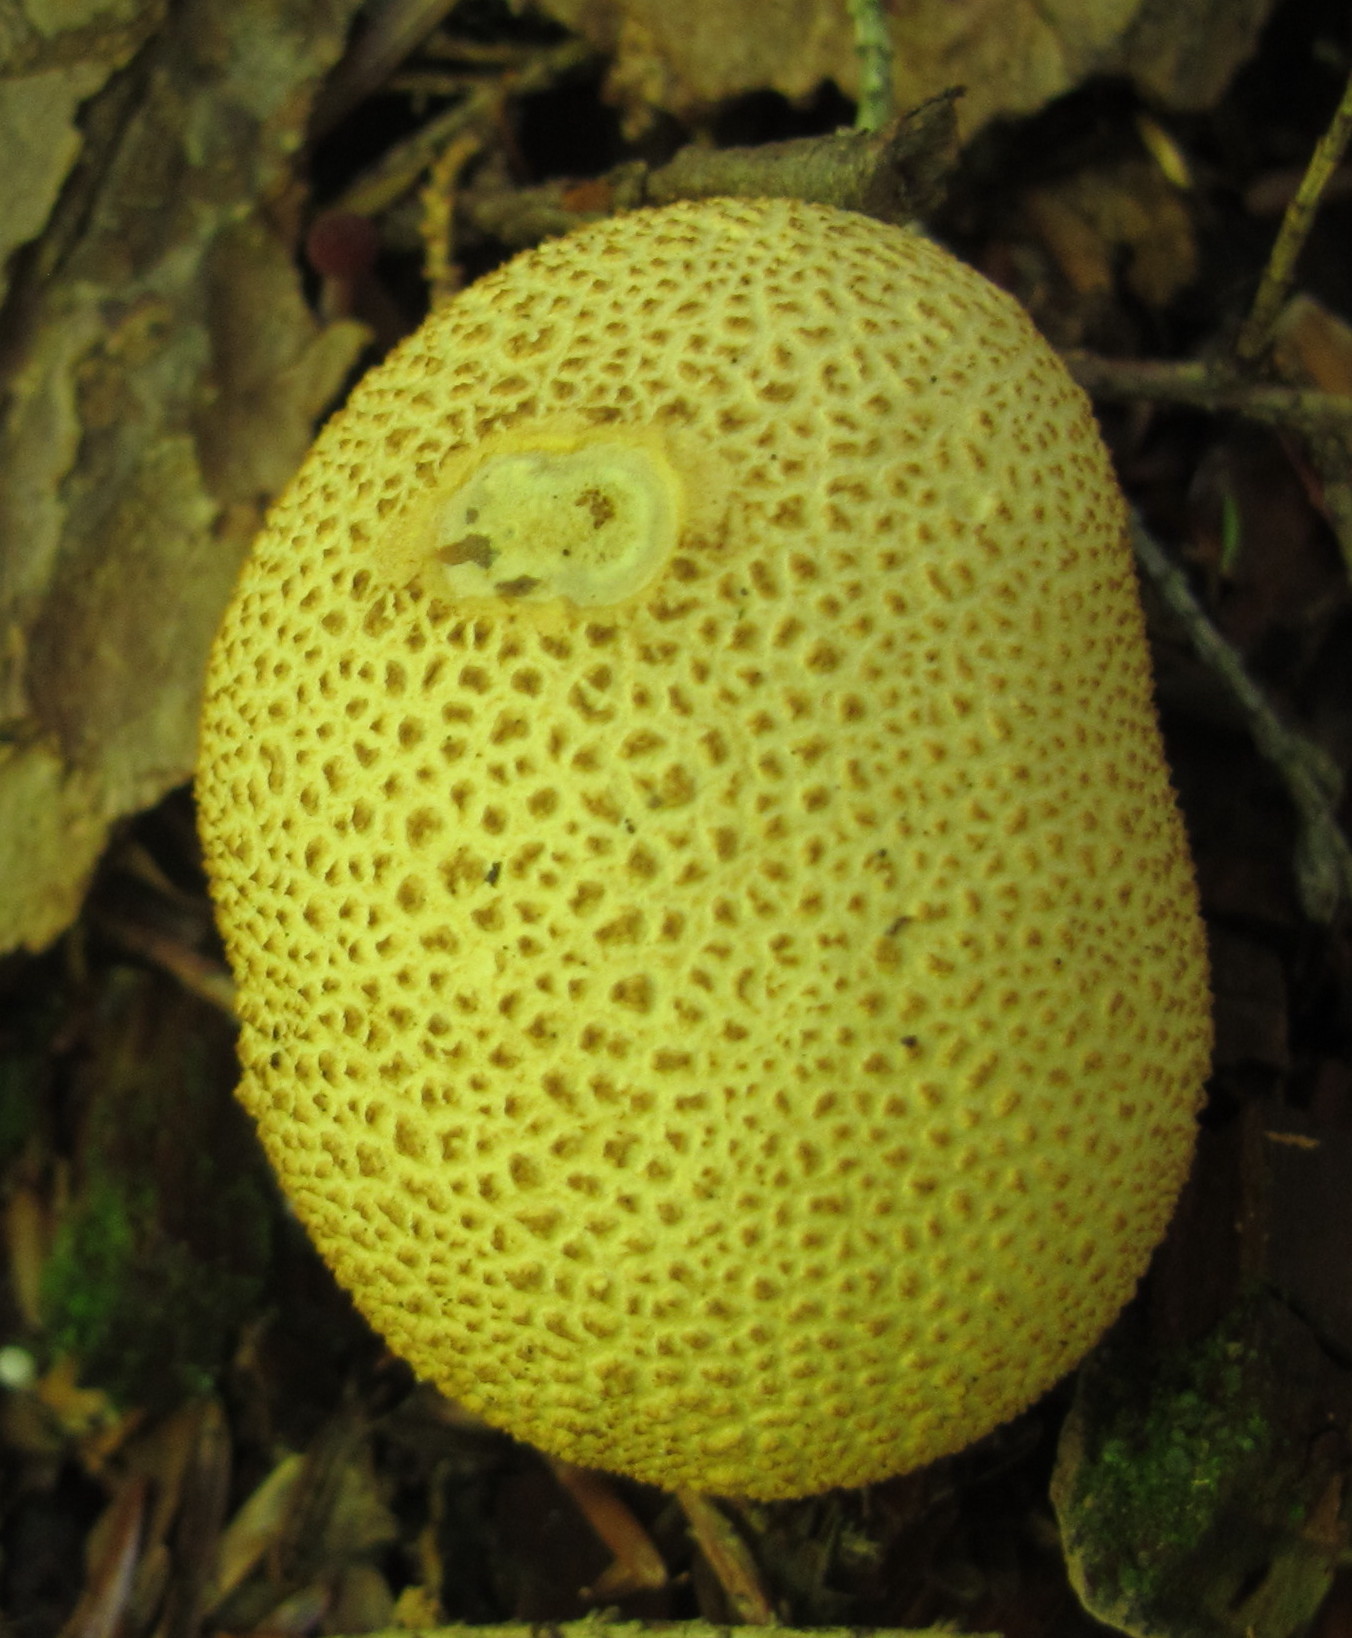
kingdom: Fungi
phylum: Basidiomycota
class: Agaricomycetes
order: Boletales
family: Sclerodermataceae
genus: Scleroderma
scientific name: Scleroderma citrinum
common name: Common earthball
